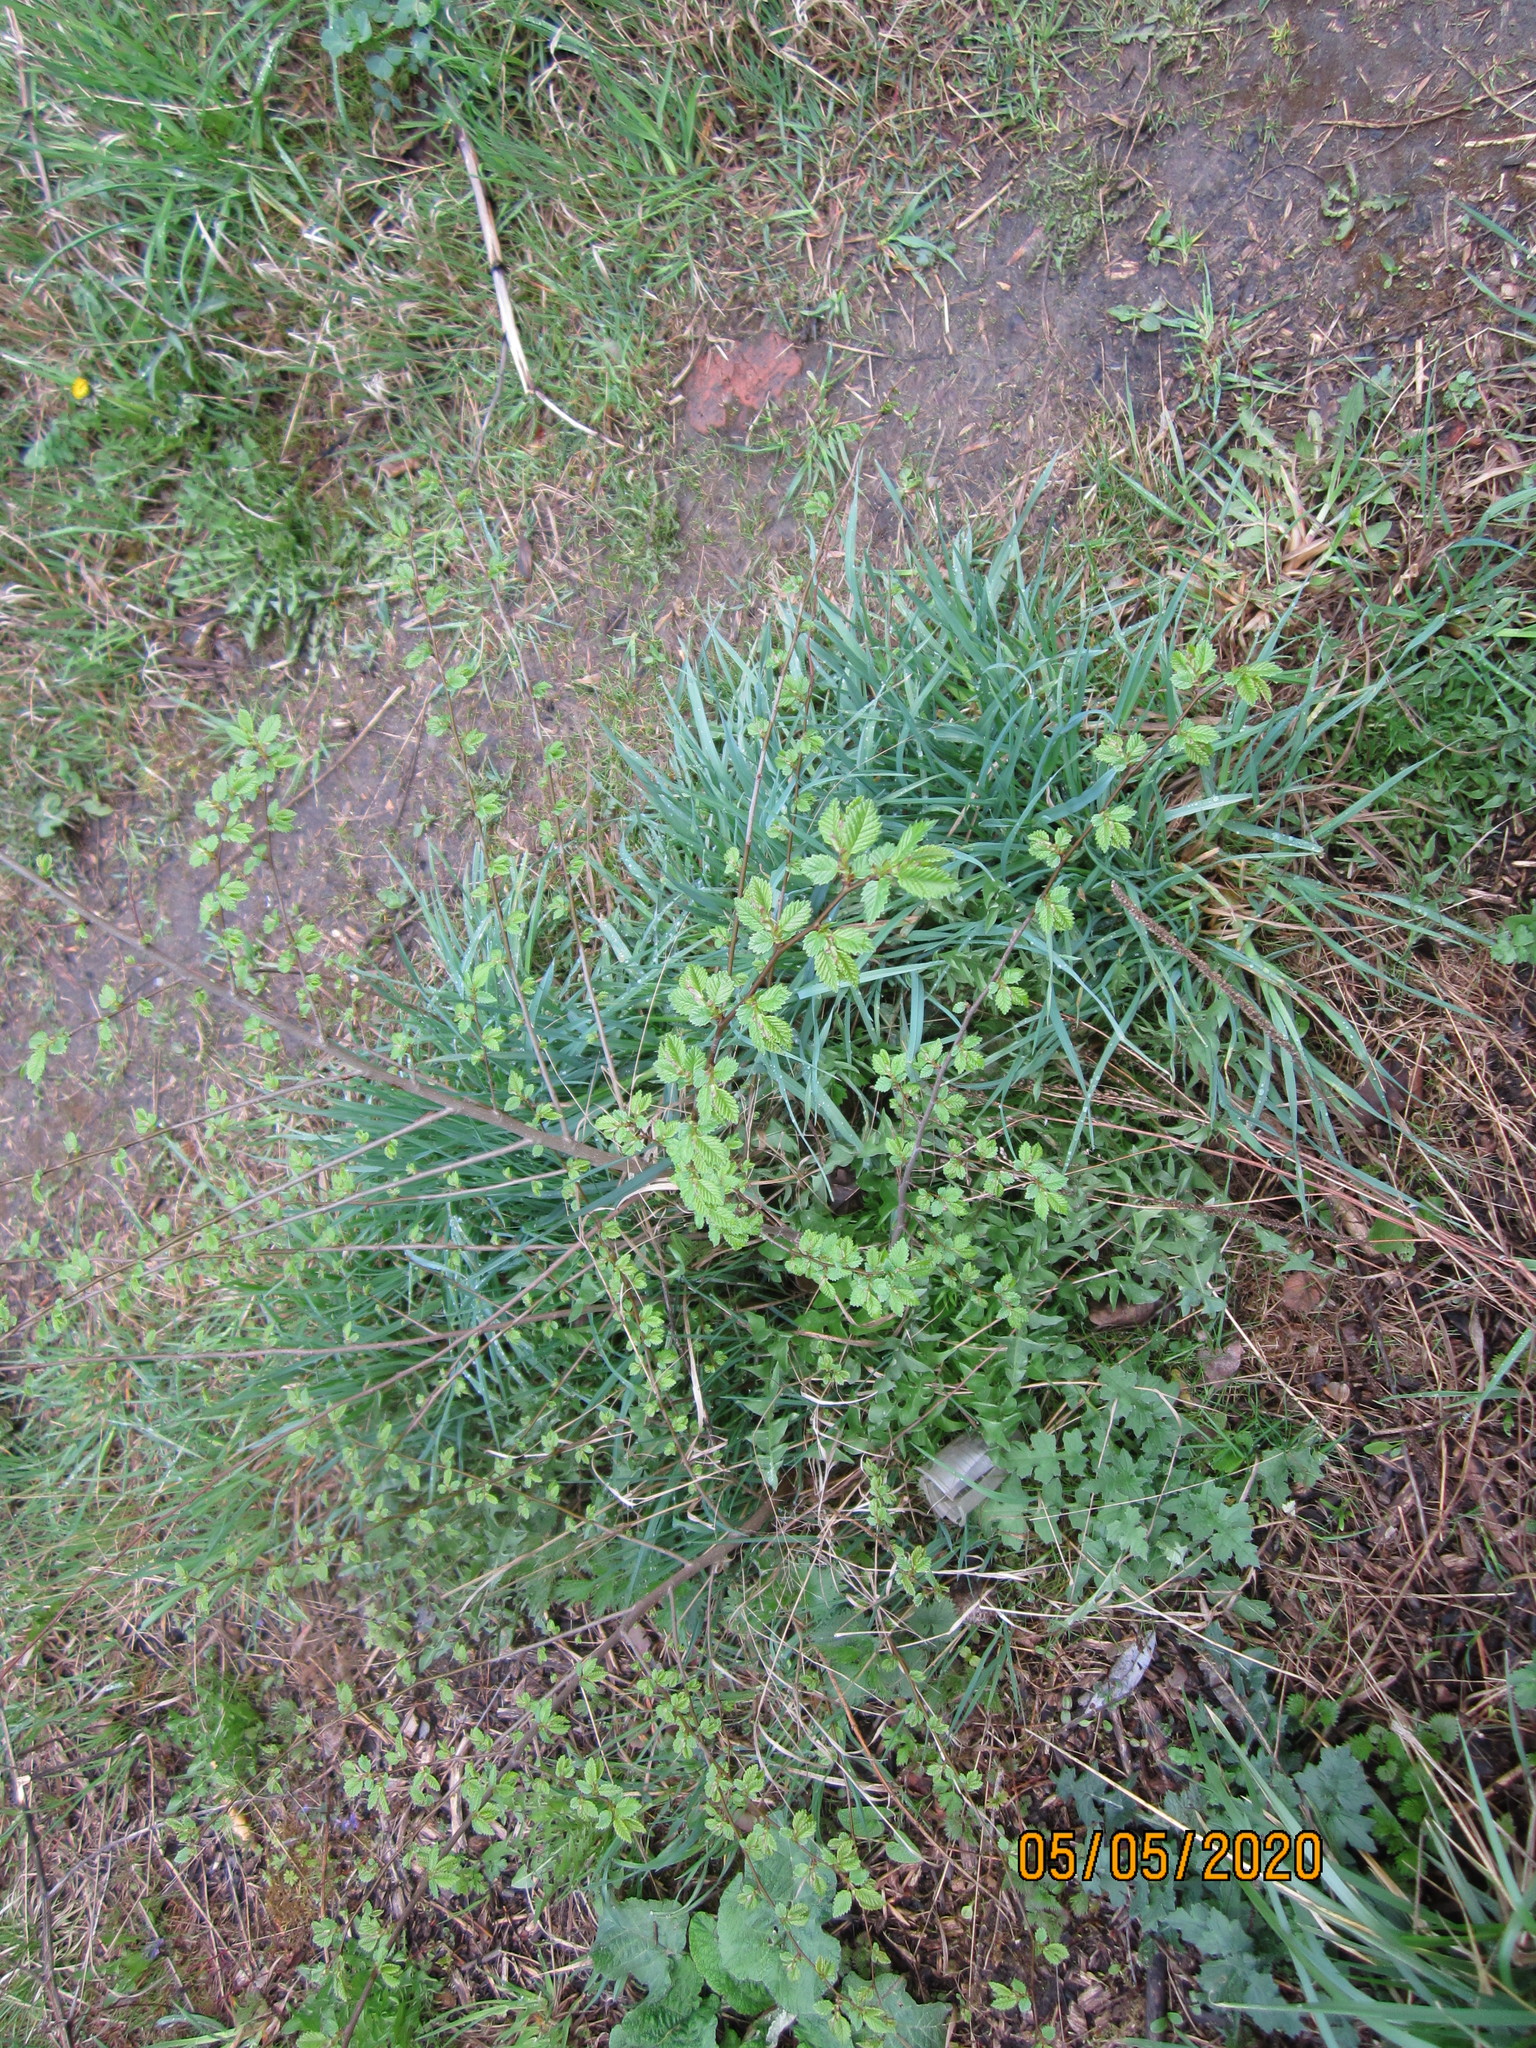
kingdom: Plantae
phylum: Tracheophyta
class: Magnoliopsida
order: Rosales
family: Ulmaceae
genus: Ulmus
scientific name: Ulmus pumila
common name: Siberian elm
